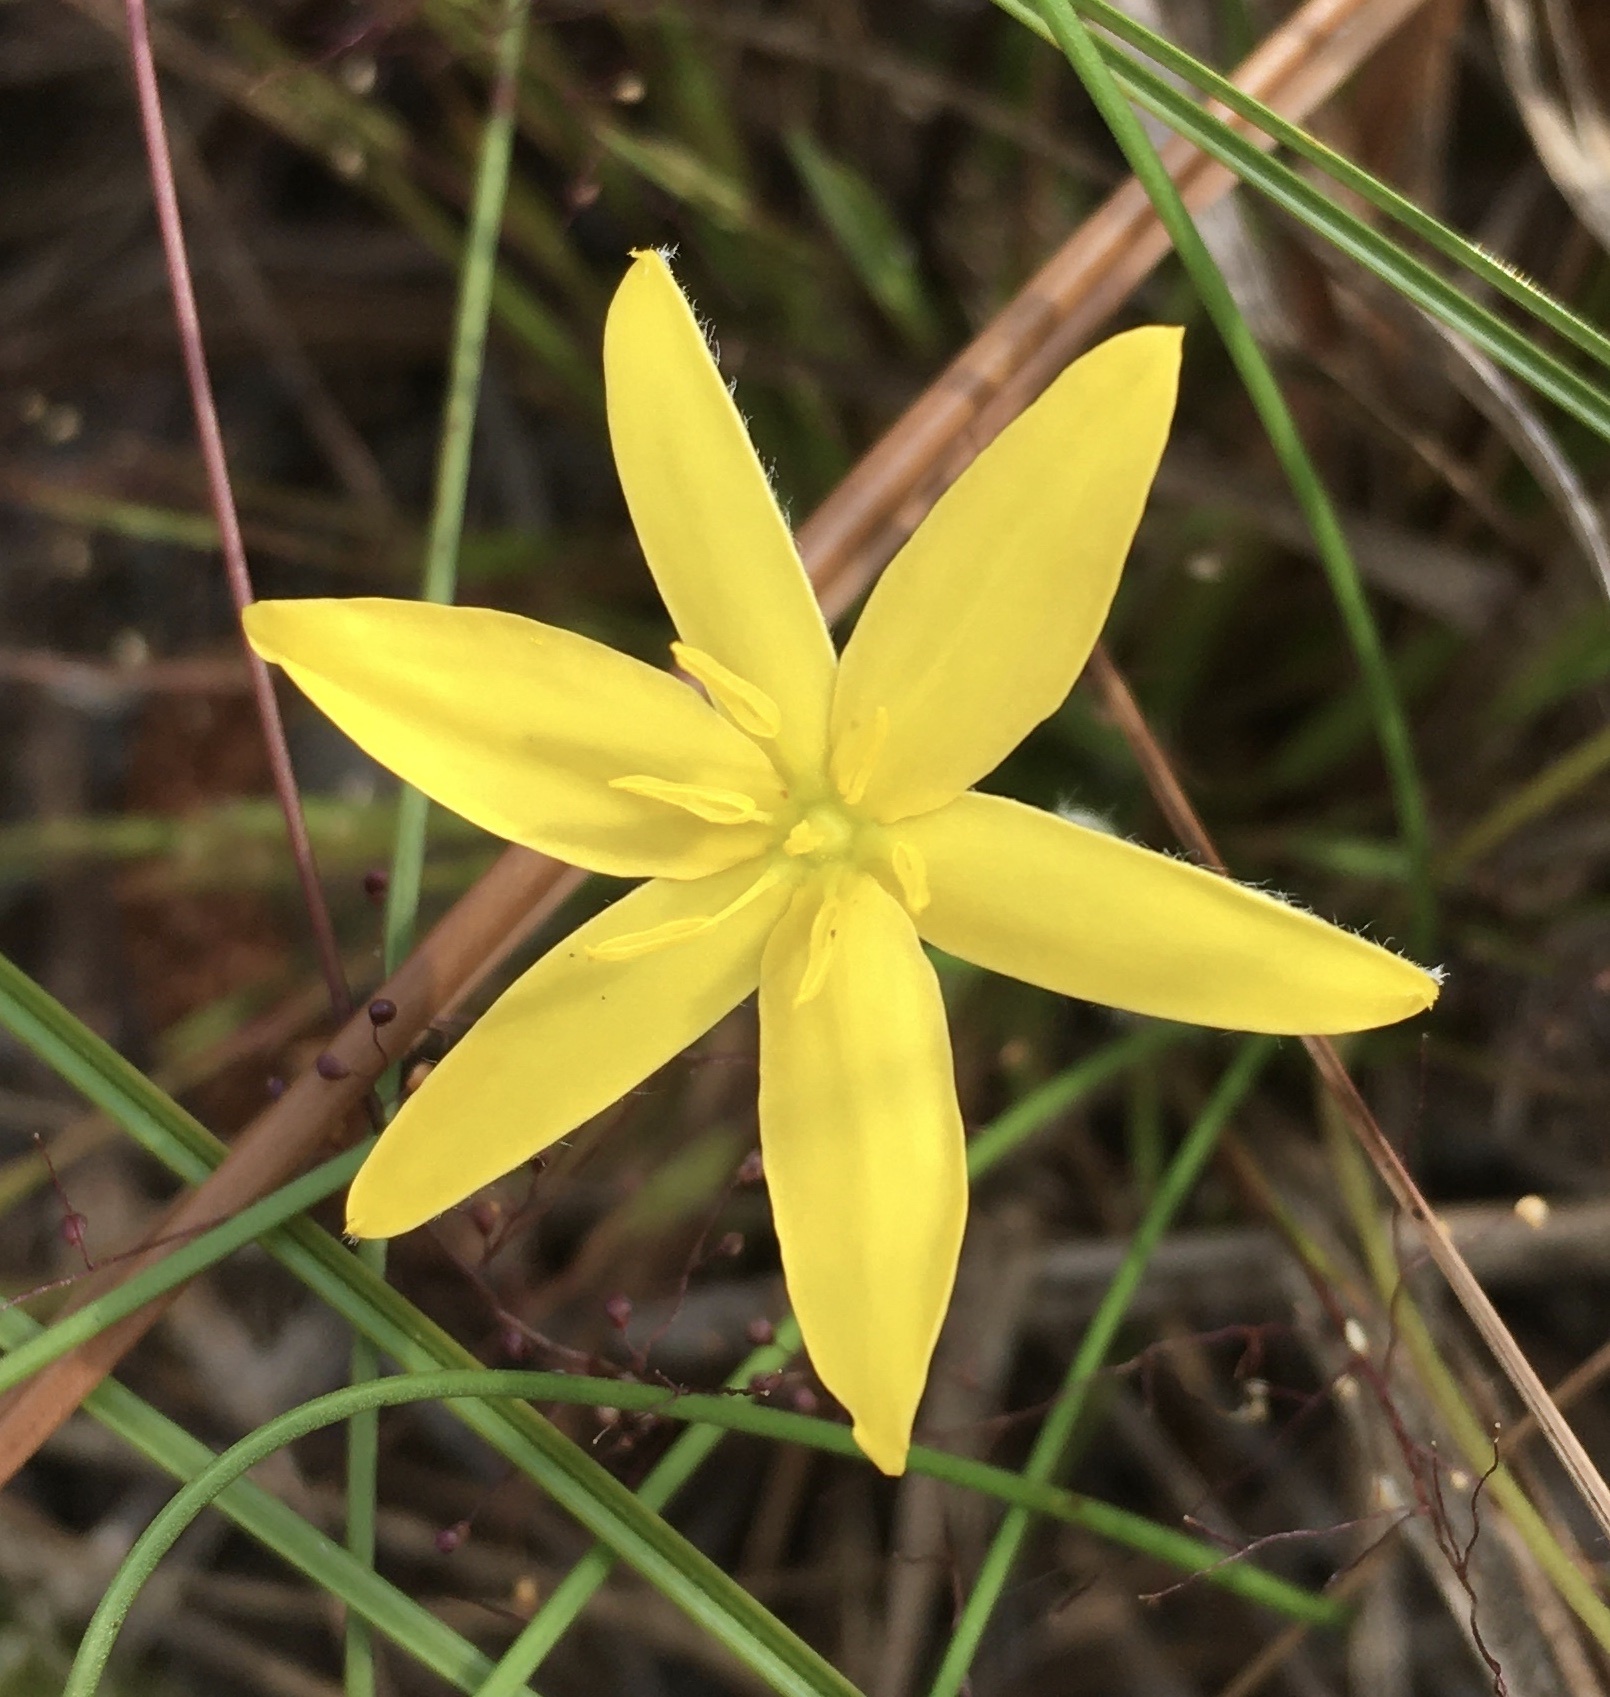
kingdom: Plantae
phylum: Tracheophyta
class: Liliopsida
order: Asparagales
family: Hypoxidaceae
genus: Hypoxis
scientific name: Hypoxis juncea
